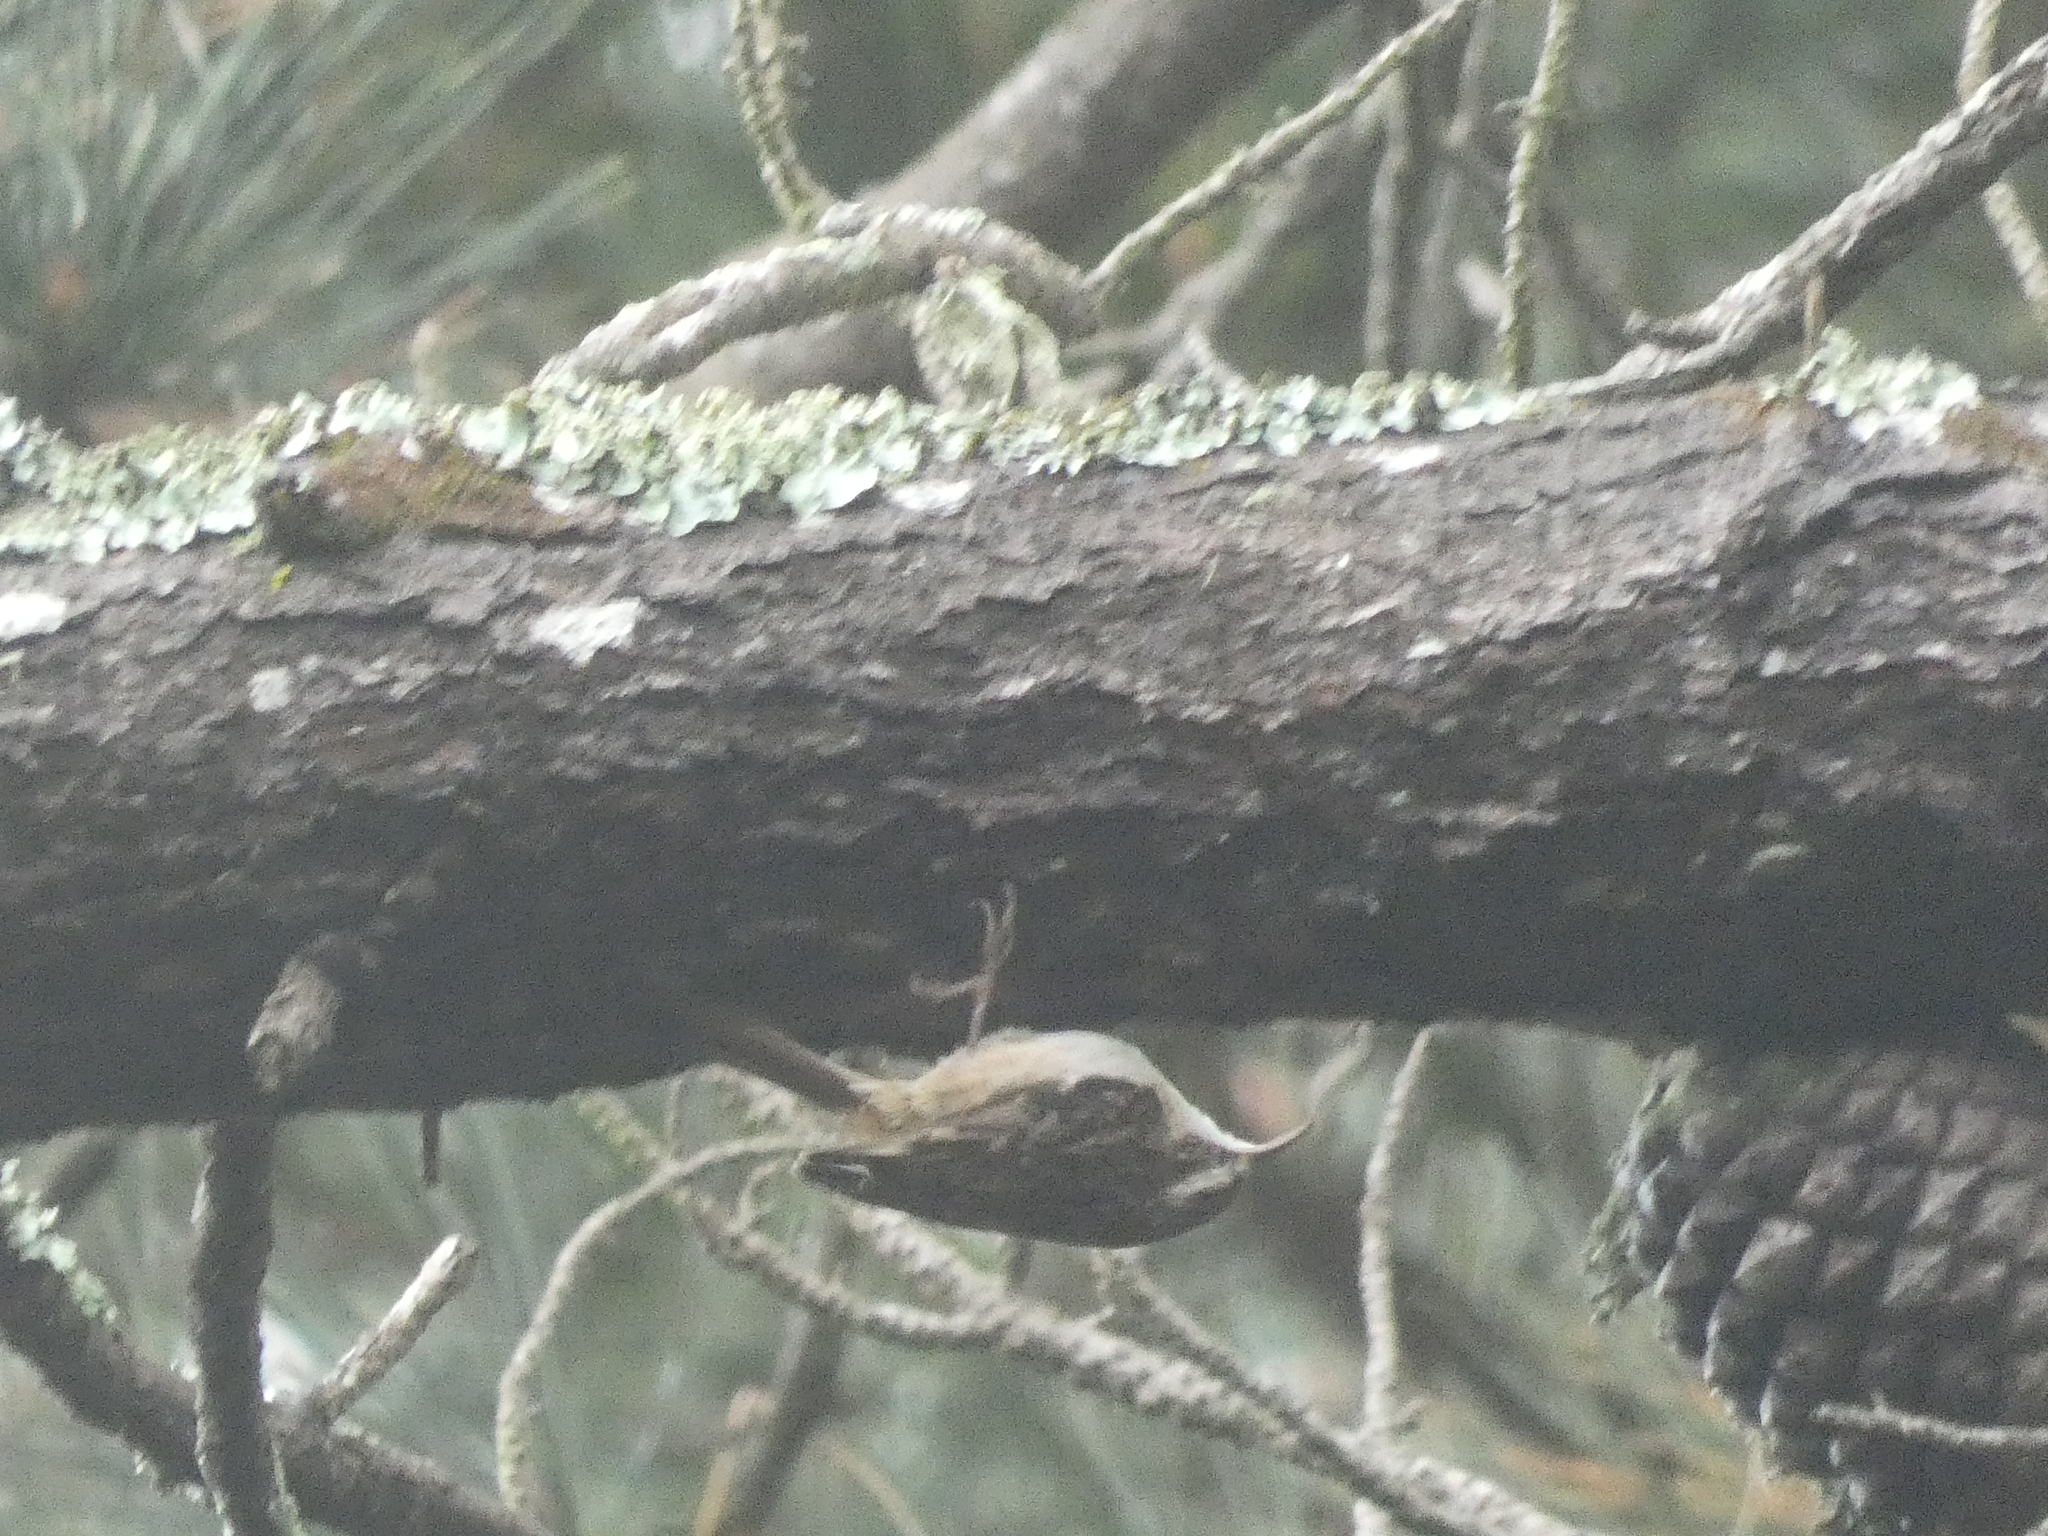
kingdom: Animalia
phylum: Chordata
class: Aves
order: Passeriformes
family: Certhiidae
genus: Certhia
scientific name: Certhia brachydactyla
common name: Short-toed treecreeper
